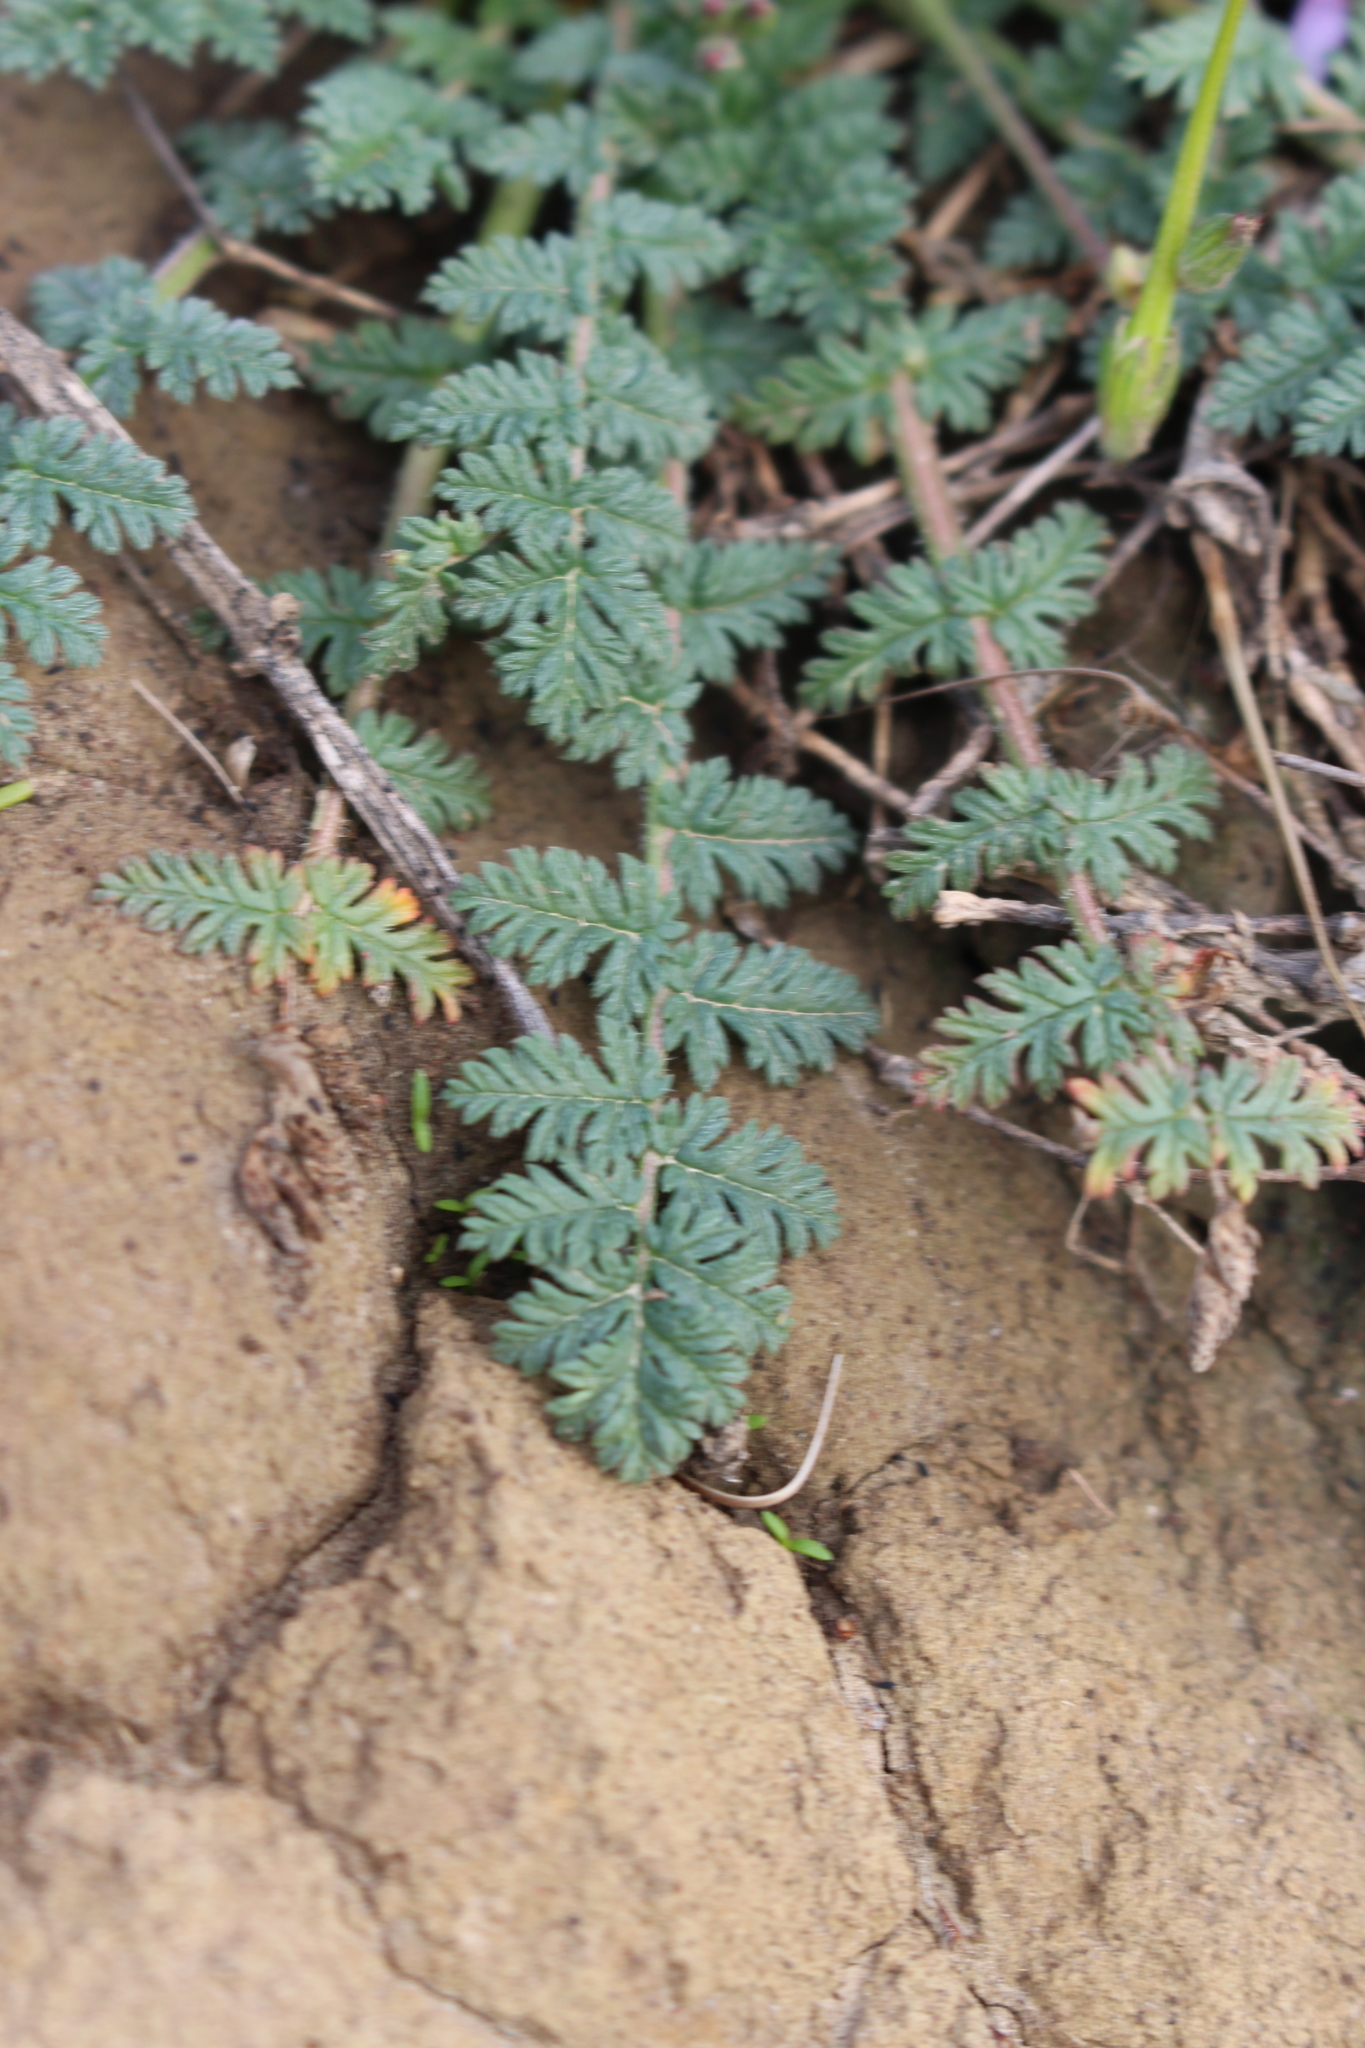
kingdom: Plantae
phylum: Tracheophyta
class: Magnoliopsida
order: Geraniales
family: Geraniaceae
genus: Erodium
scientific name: Erodium cicutarium
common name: Common stork's-bill
